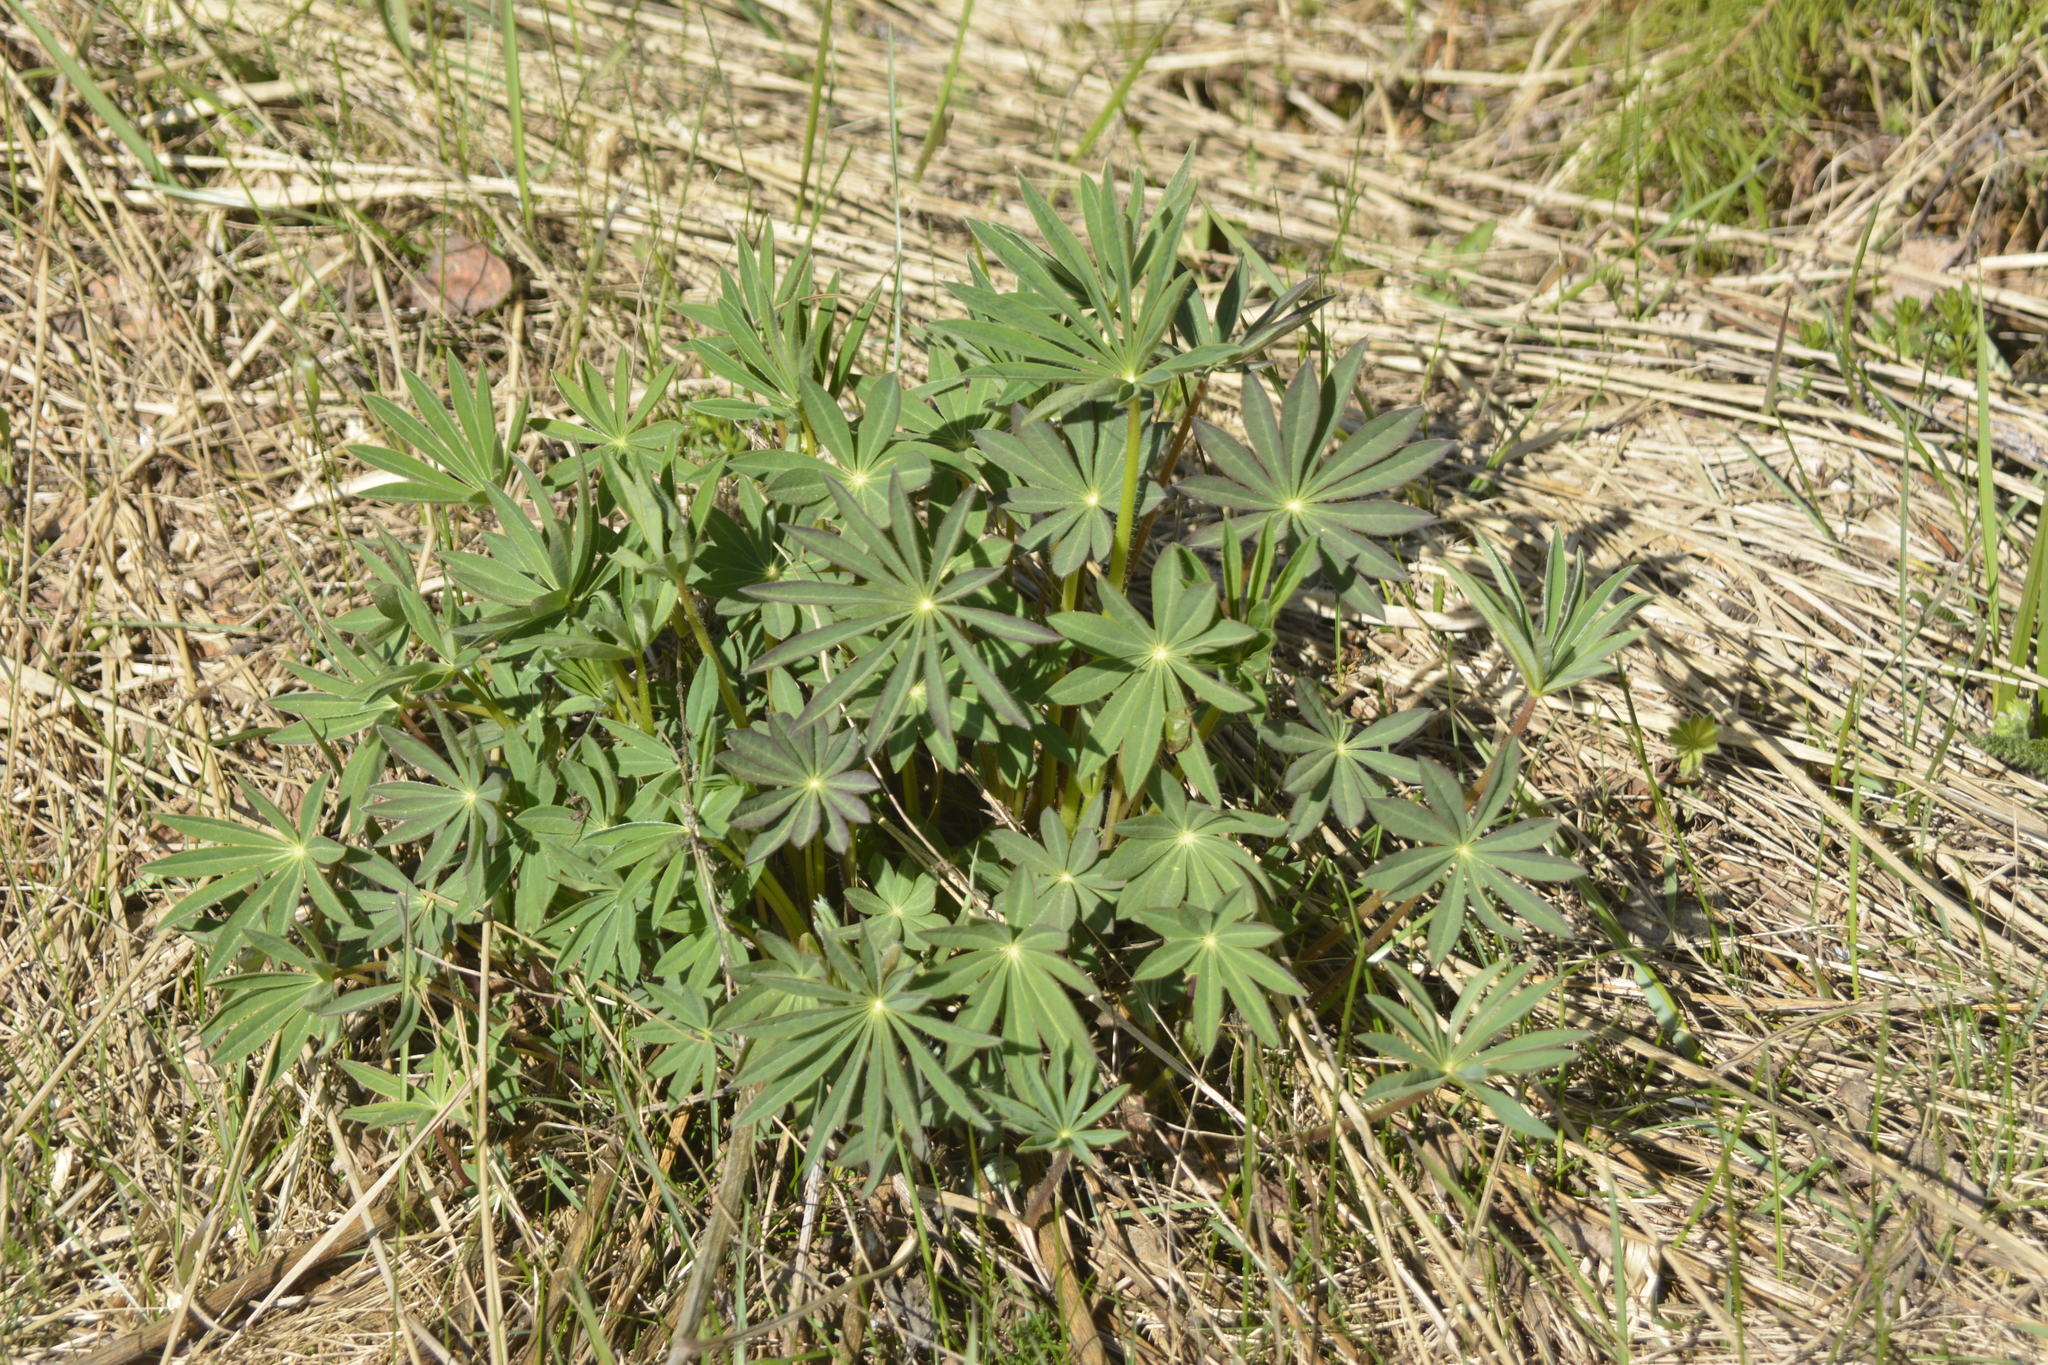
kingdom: Plantae
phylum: Tracheophyta
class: Magnoliopsida
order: Fabales
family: Fabaceae
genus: Lupinus
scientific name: Lupinus polyphyllus
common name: Garden lupin
